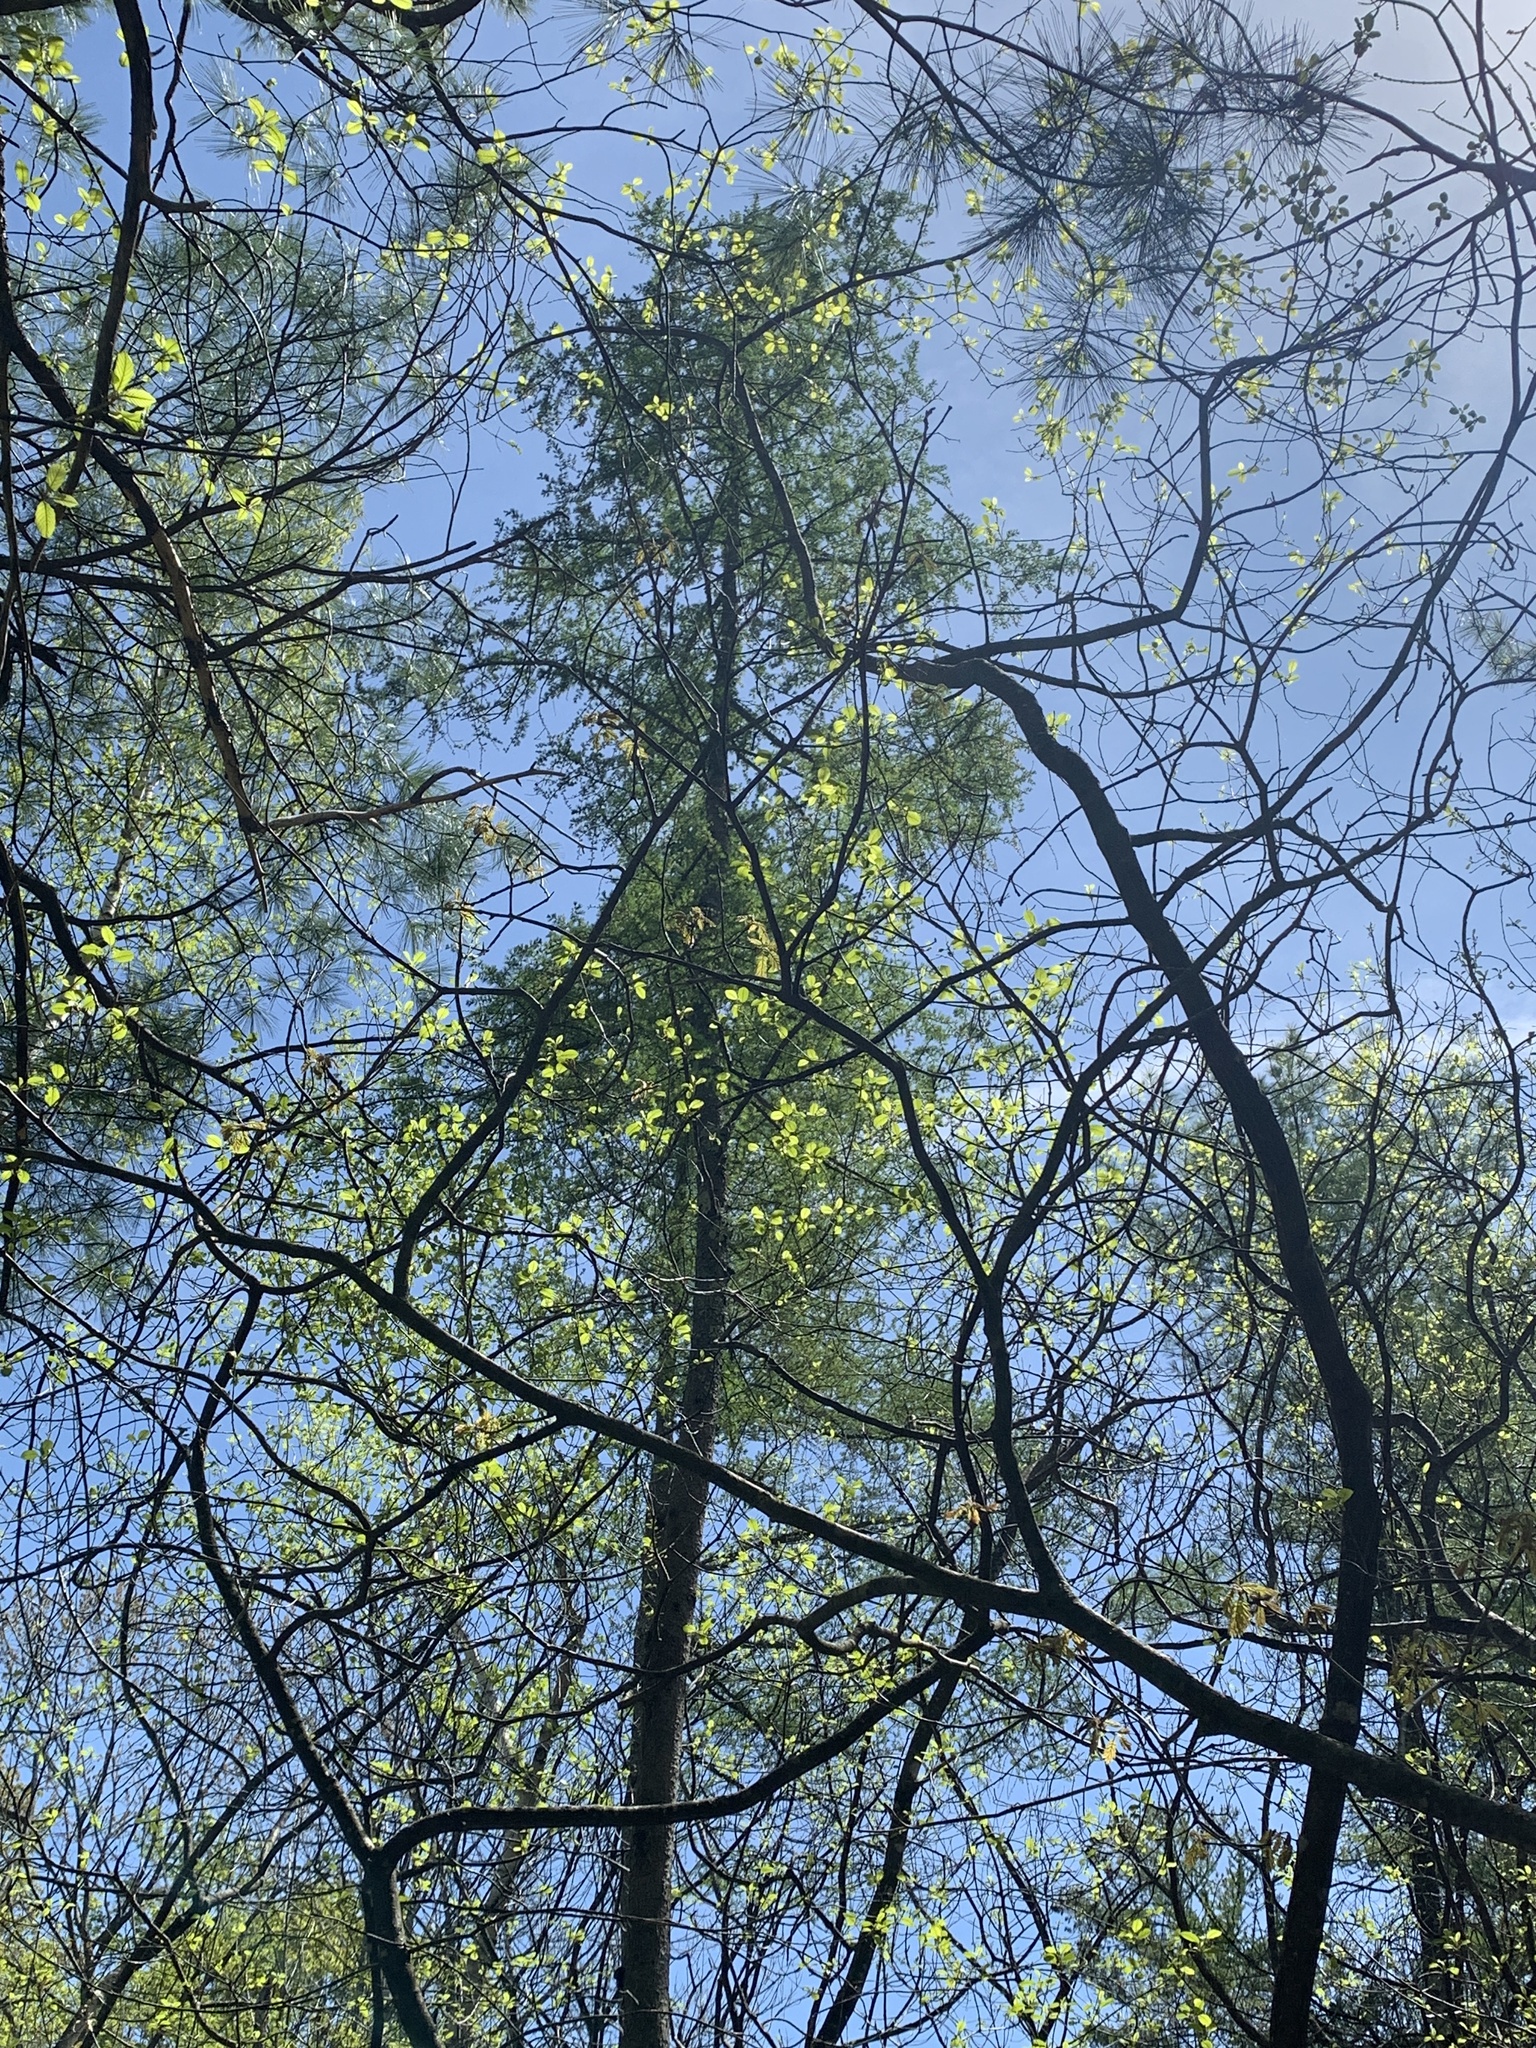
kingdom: Plantae
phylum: Tracheophyta
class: Pinopsida
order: Pinales
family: Pinaceae
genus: Larix
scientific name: Larix laricina
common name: American larch
